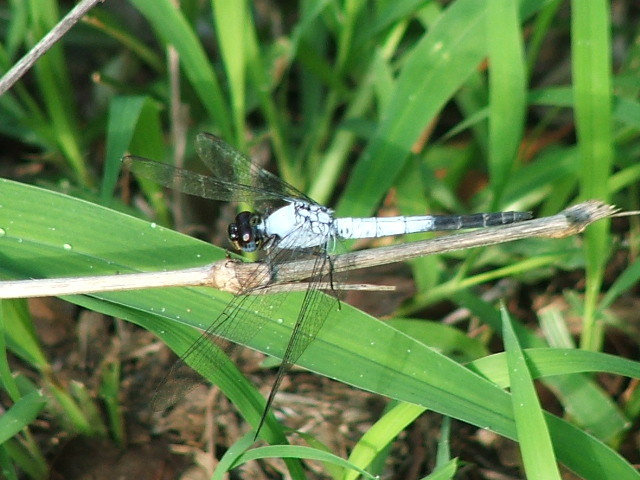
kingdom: Animalia
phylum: Arthropoda
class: Insecta
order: Odonata
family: Libellulidae
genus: Nesciothemis
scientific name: Nesciothemis farinosa
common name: Eastern blacktail
